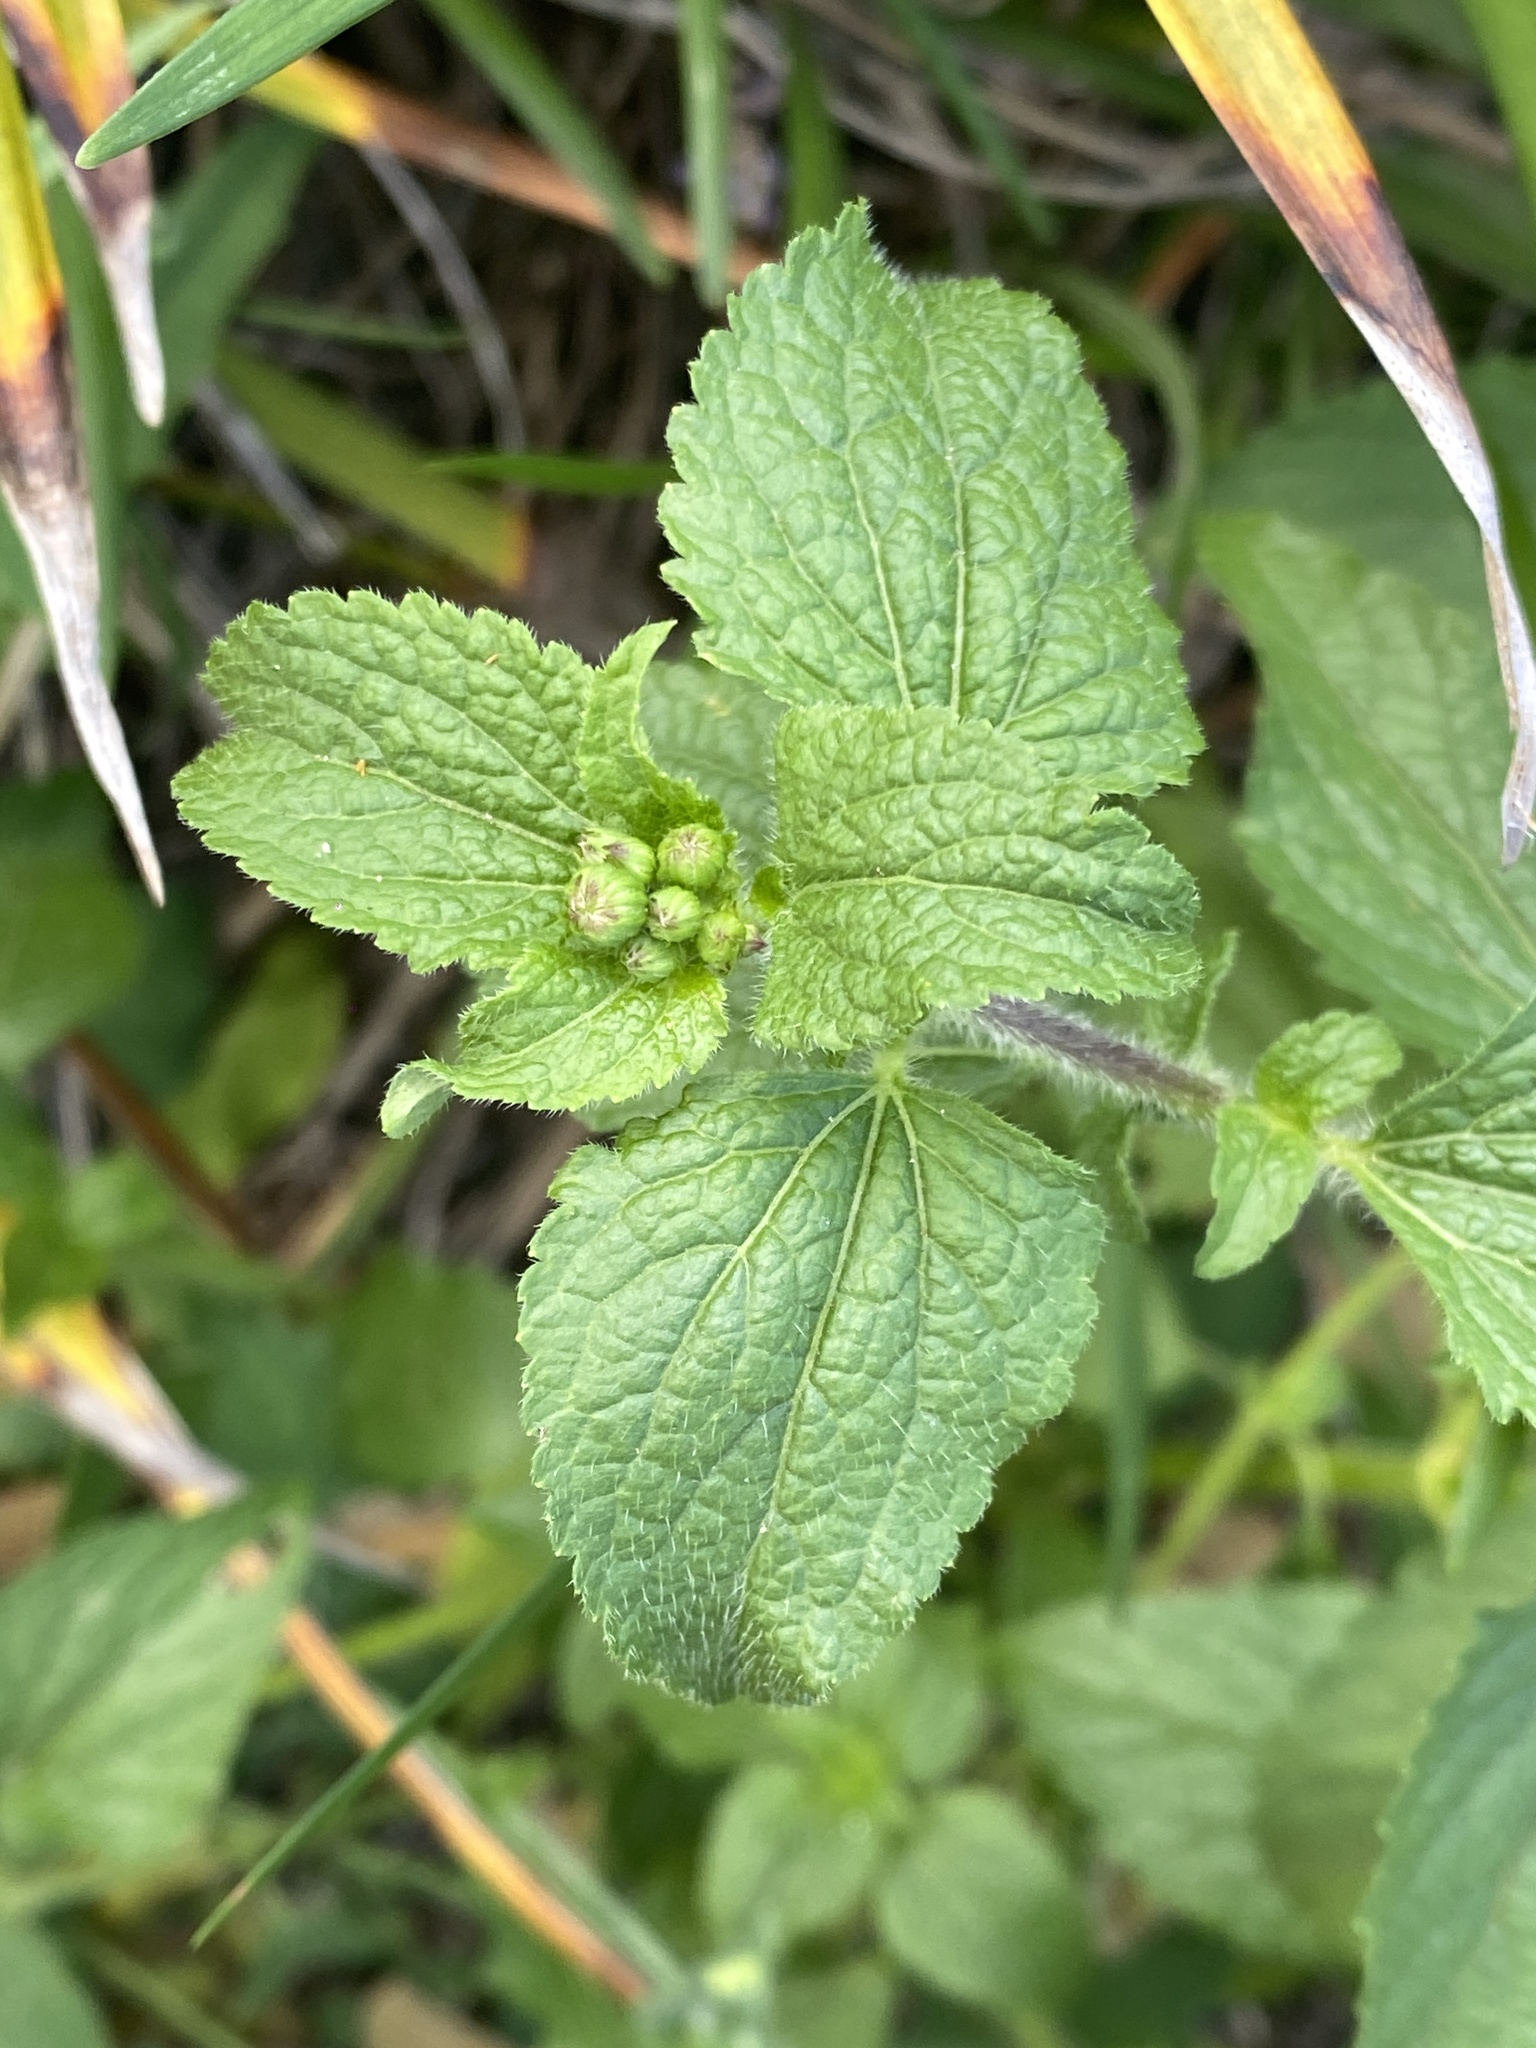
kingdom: Plantae
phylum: Tracheophyta
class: Magnoliopsida
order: Asterales
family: Asteraceae
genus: Ageratum
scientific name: Ageratum conyzoides
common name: Tropical whiteweed
